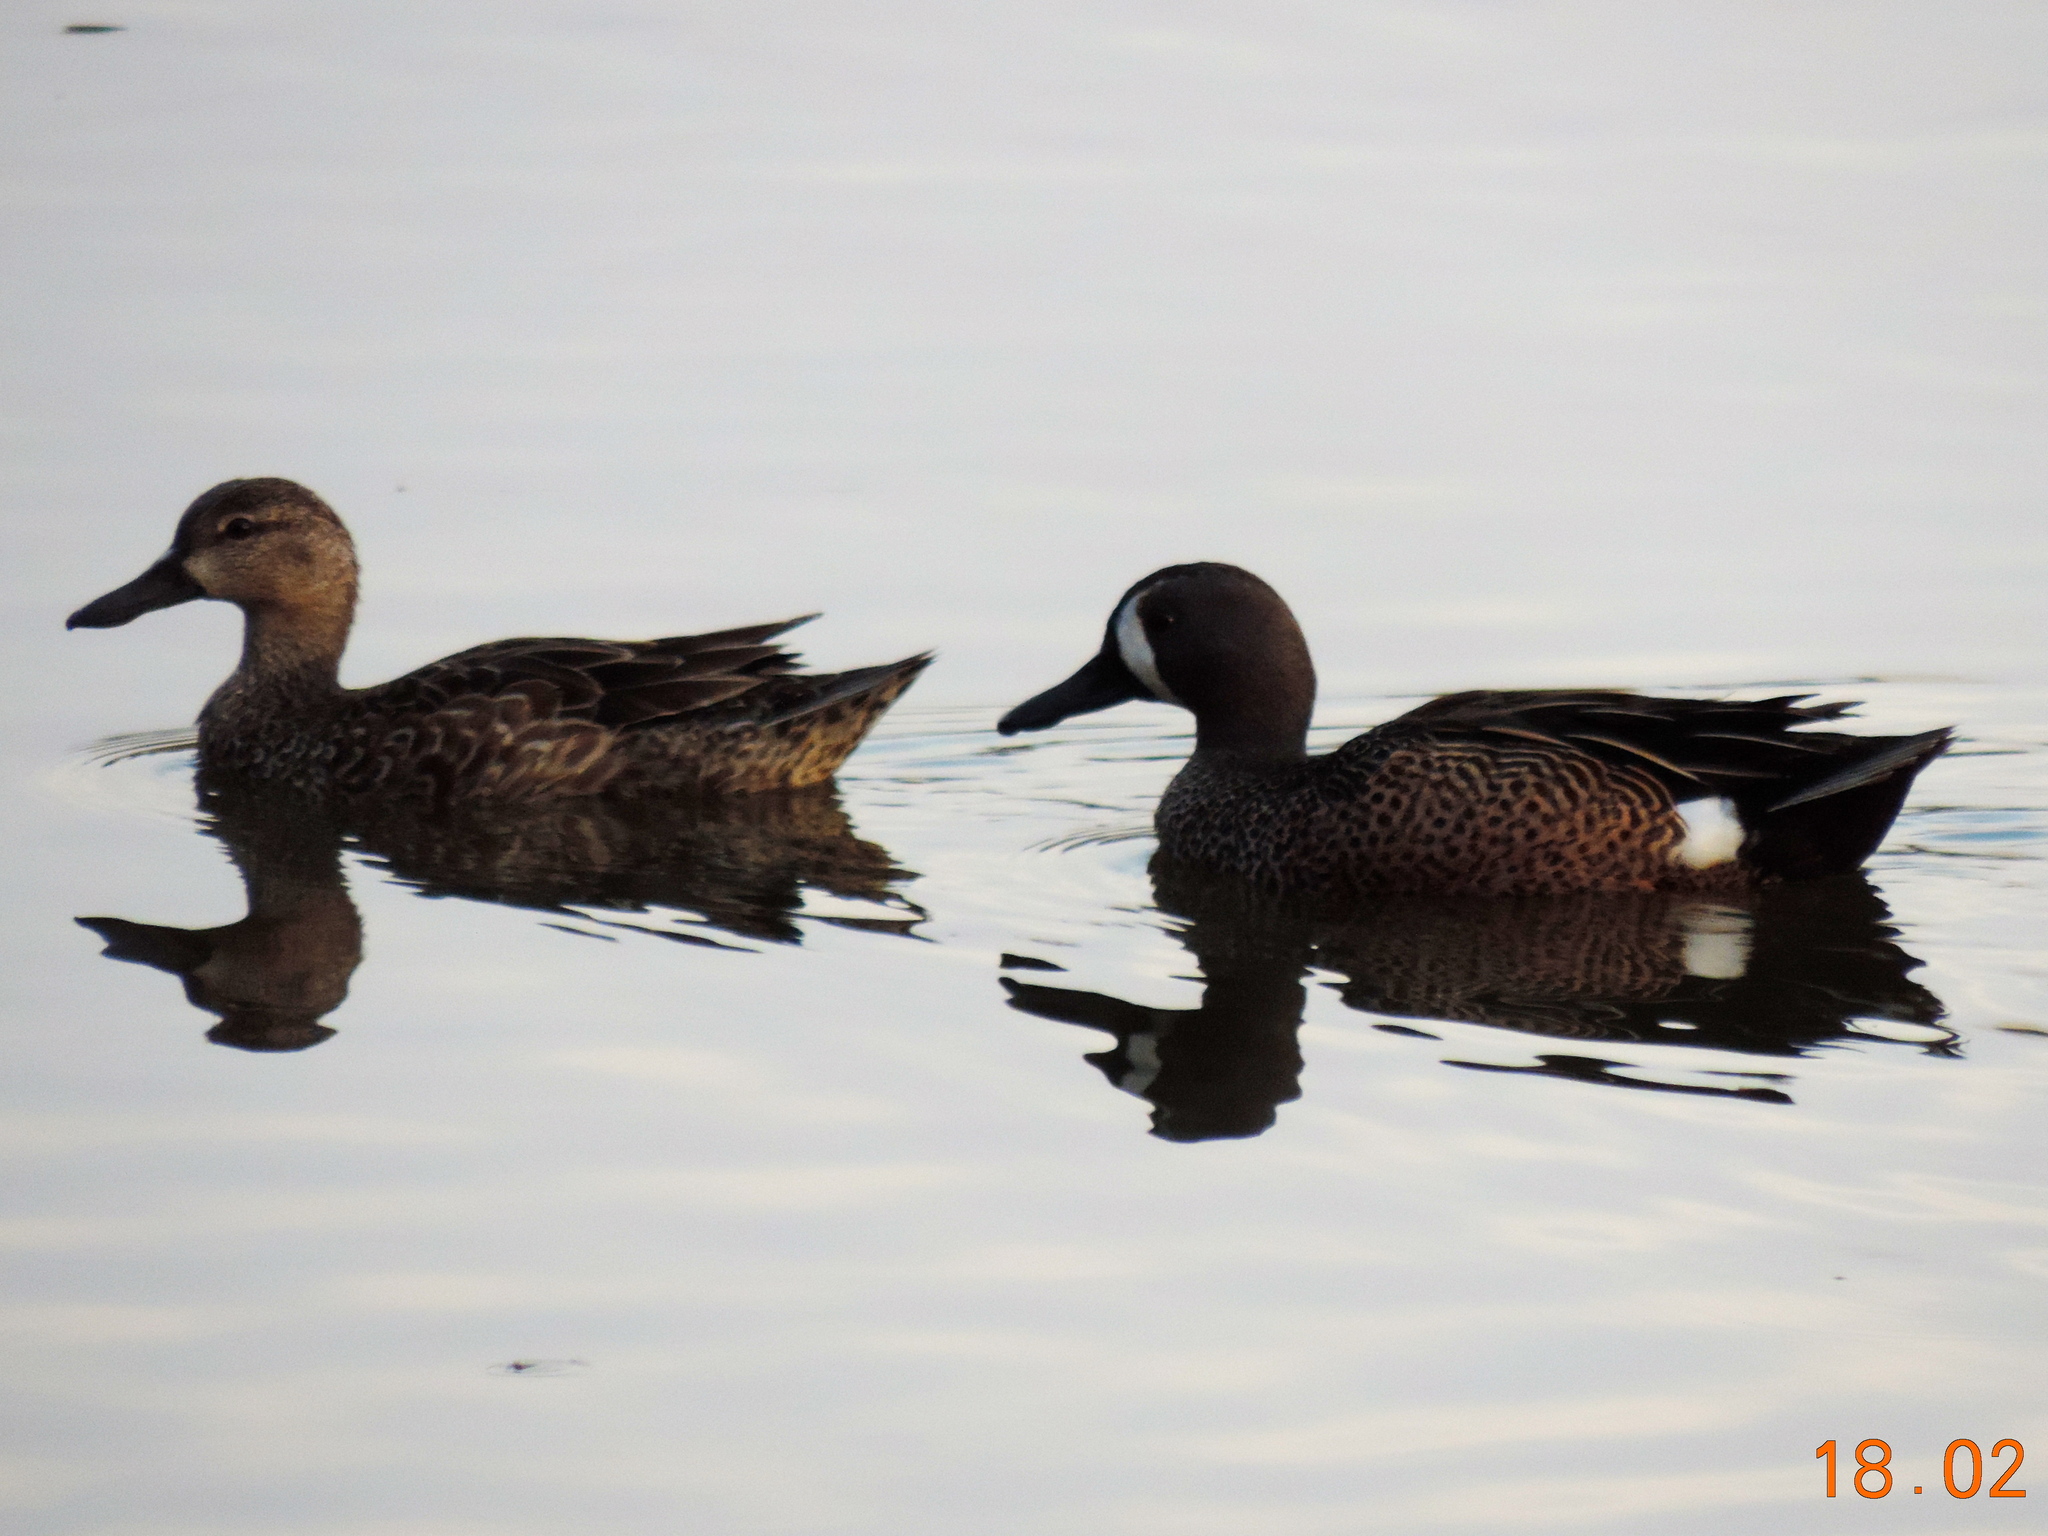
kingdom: Animalia
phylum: Chordata
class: Aves
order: Anseriformes
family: Anatidae
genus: Spatula
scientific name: Spatula discors
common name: Blue-winged teal
